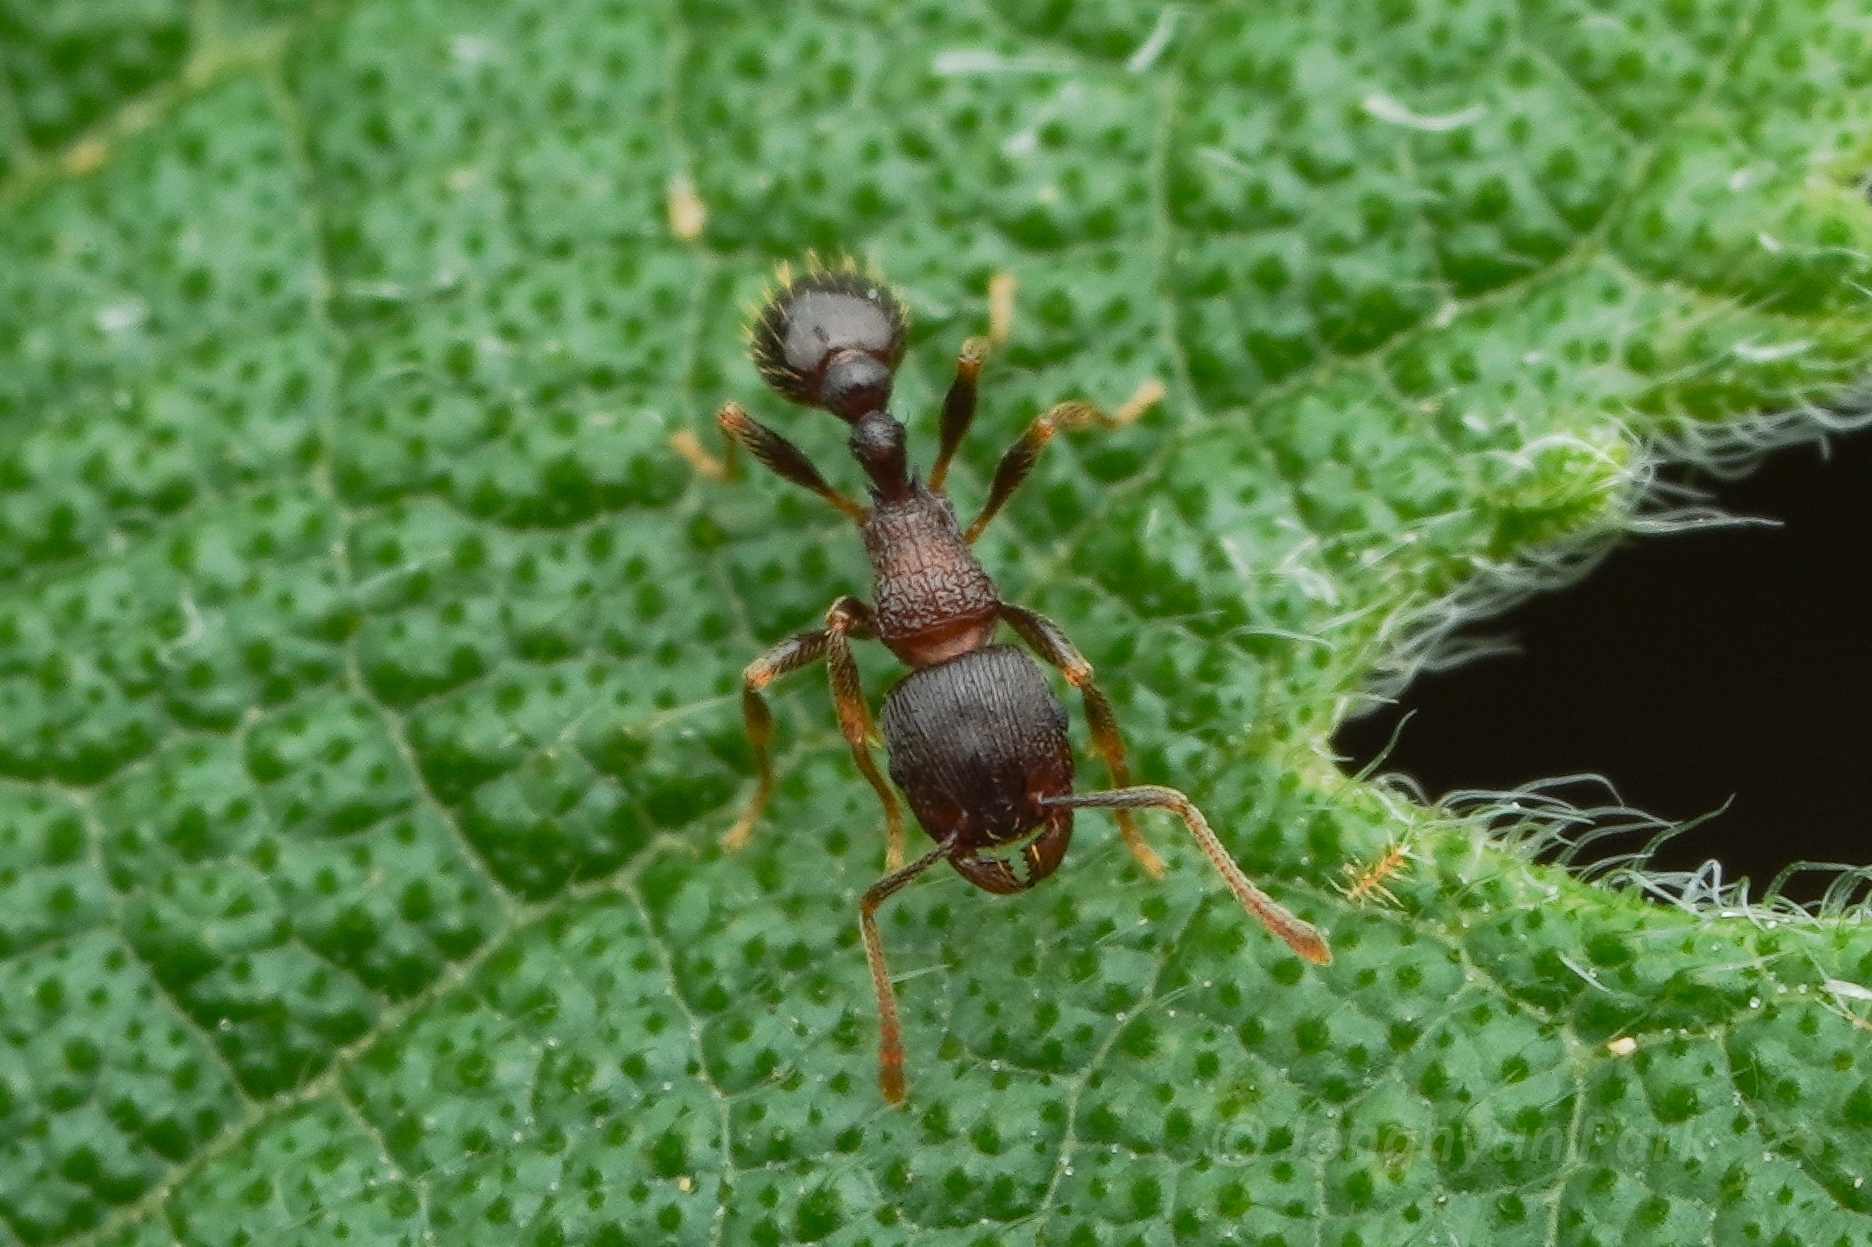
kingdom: Animalia
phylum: Arthropoda
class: Insecta
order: Hymenoptera
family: Formicidae
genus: Tetramorium
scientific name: Tetramorium tsushimae
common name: Ant
